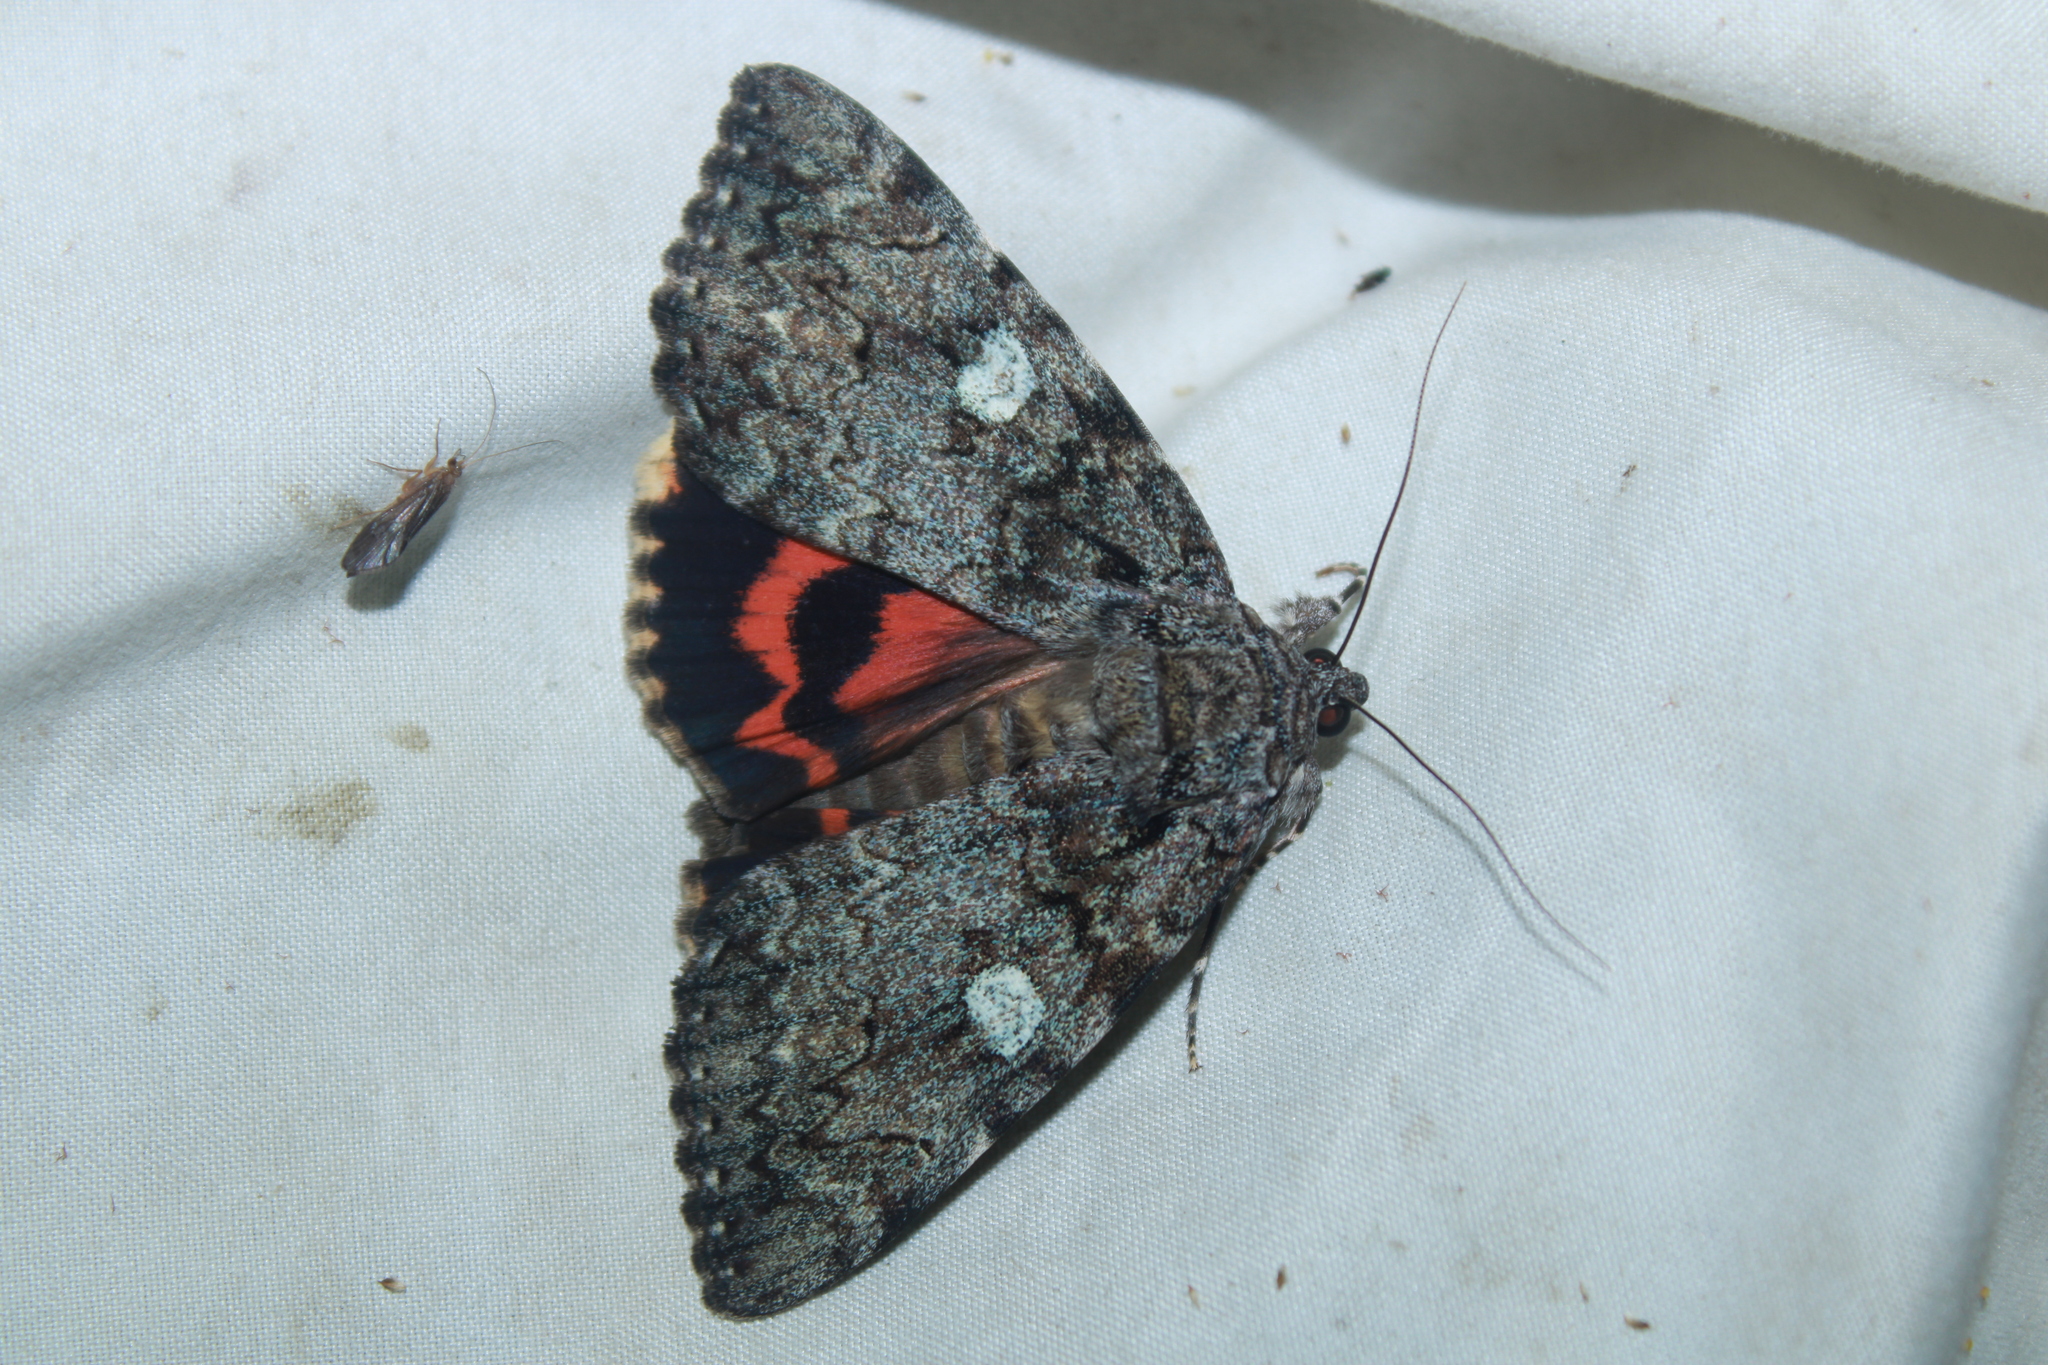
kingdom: Animalia
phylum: Arthropoda
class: Insecta
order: Lepidoptera
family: Erebidae
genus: Catocala
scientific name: Catocala ilia
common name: Ilia underwing
